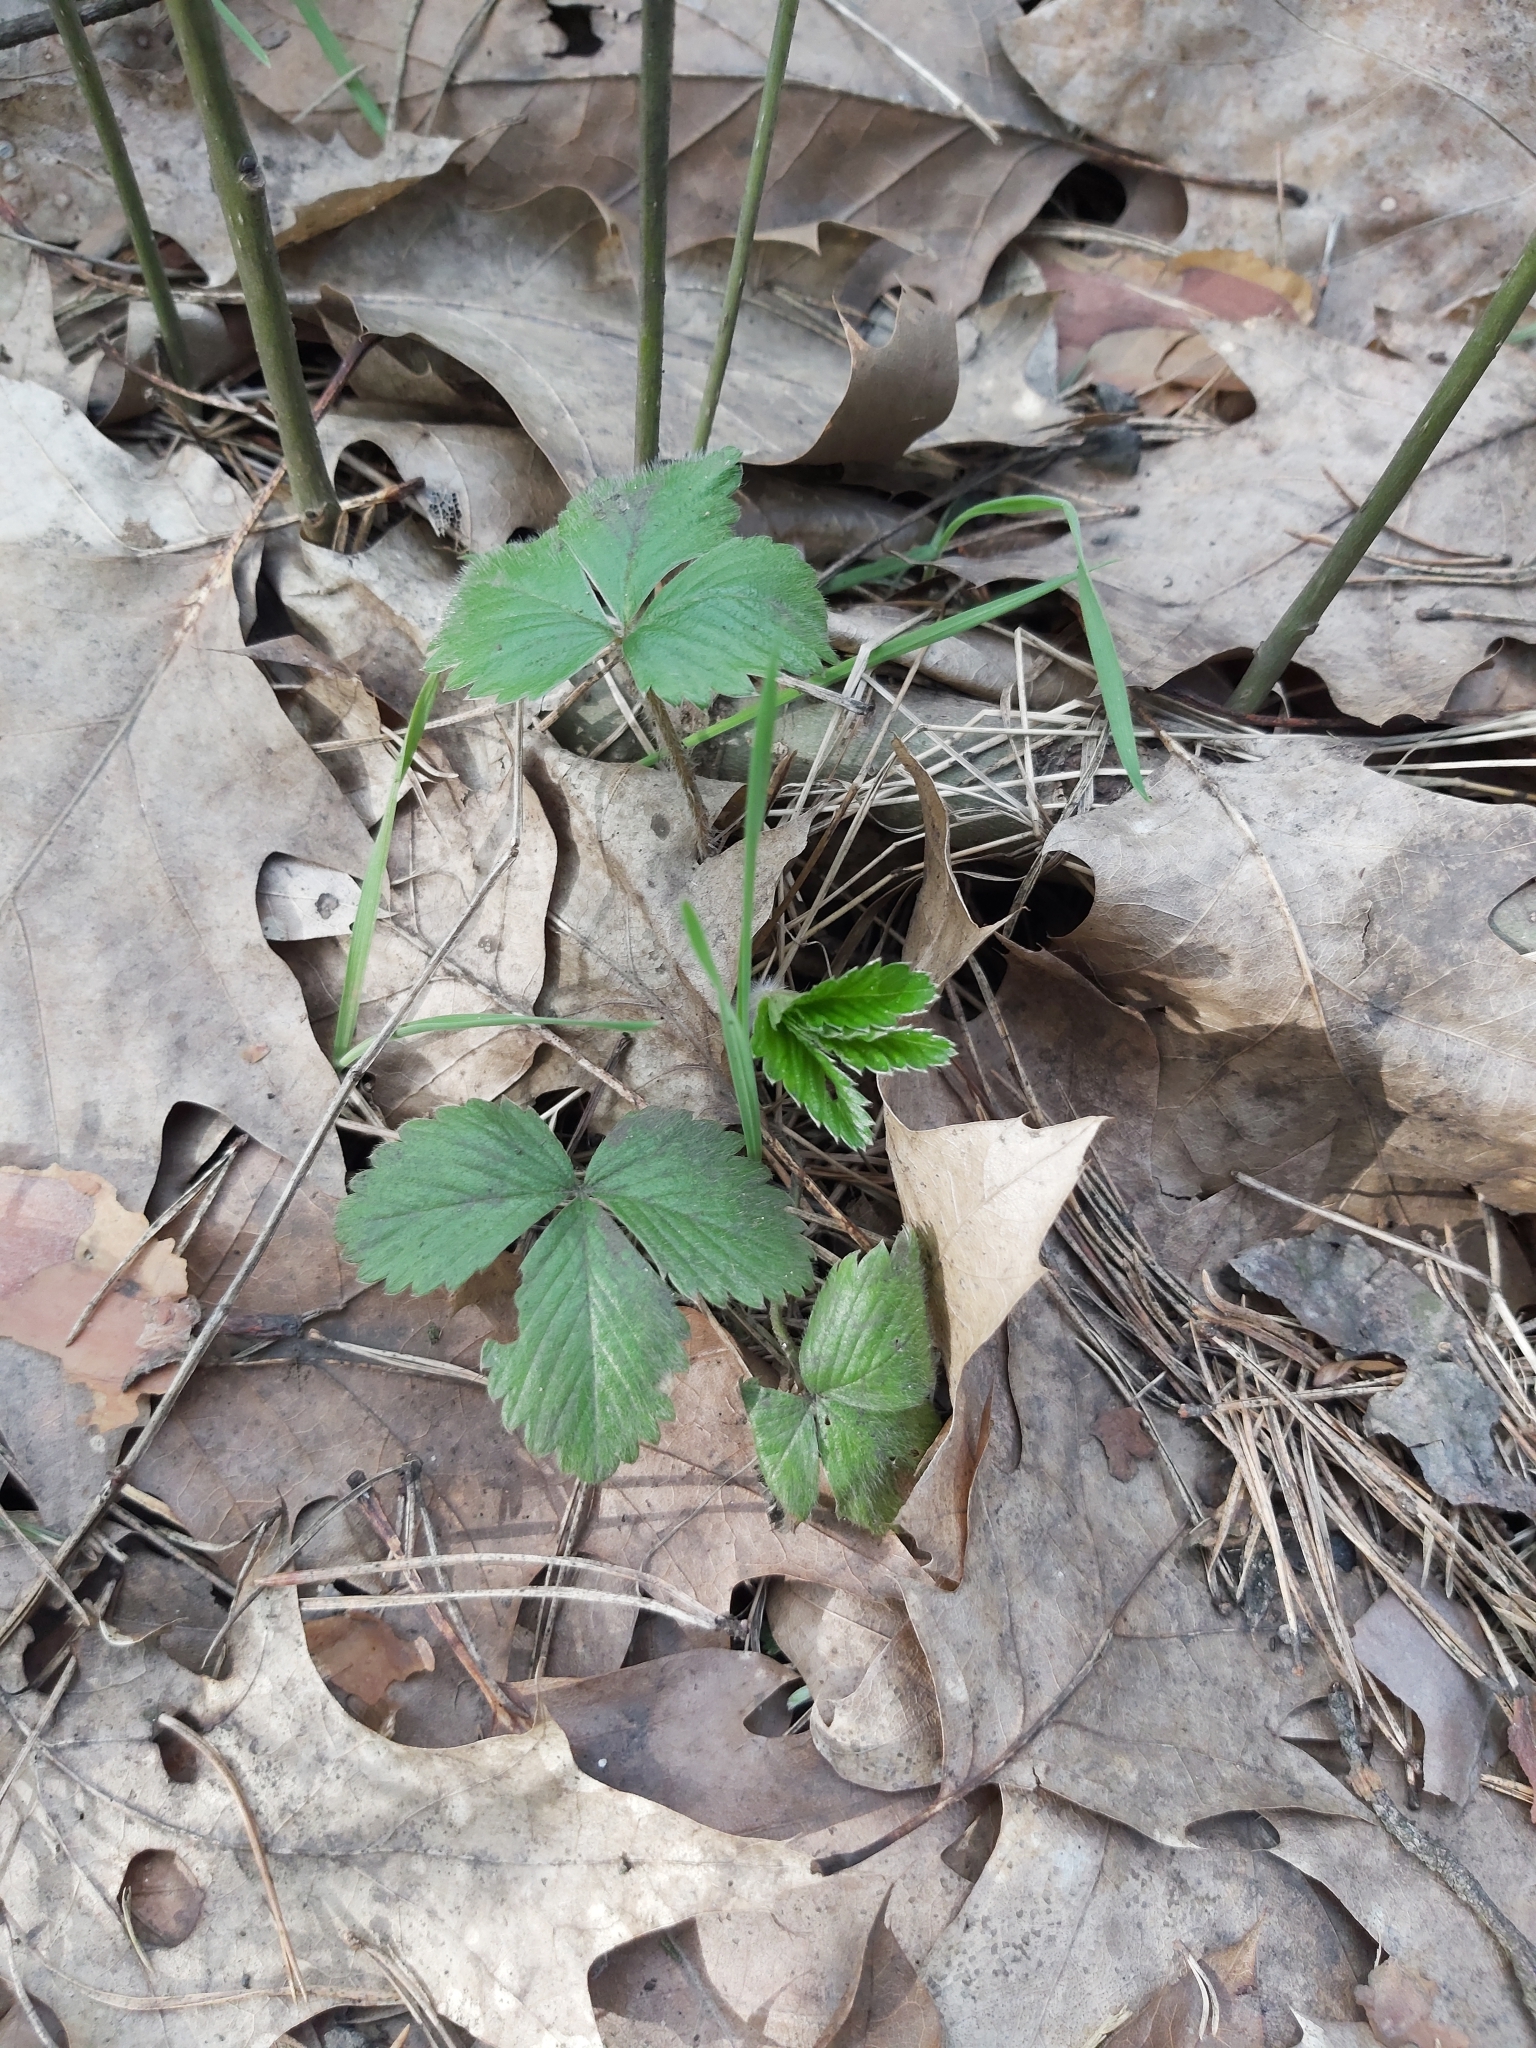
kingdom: Plantae
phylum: Tracheophyta
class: Magnoliopsida
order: Rosales
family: Rosaceae
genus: Fragaria
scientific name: Fragaria vesca
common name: Wild strawberry
